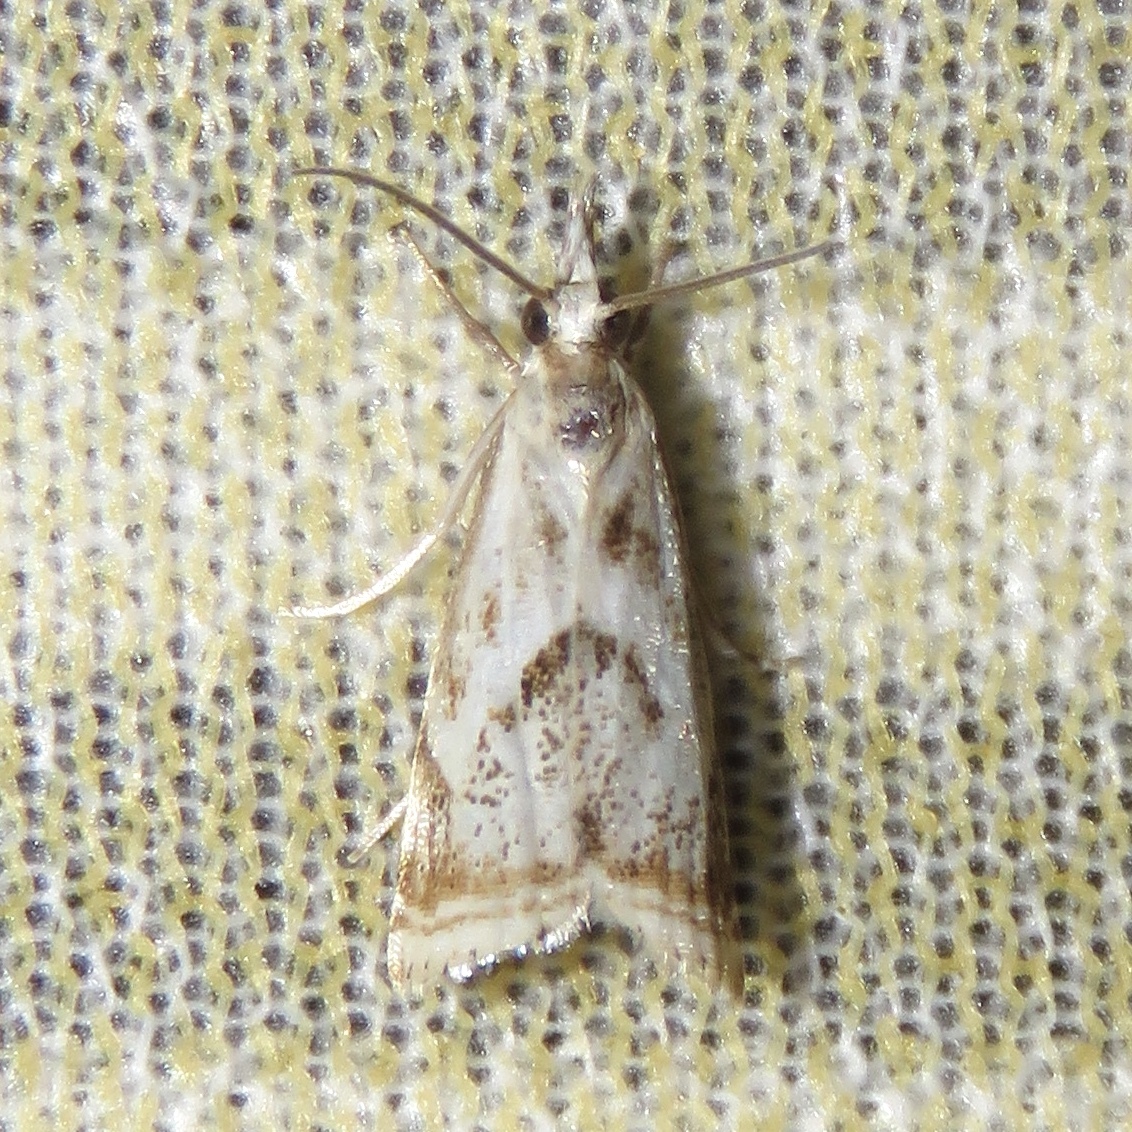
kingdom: Animalia
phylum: Arthropoda
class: Insecta
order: Lepidoptera
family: Crambidae
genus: Microcrambus
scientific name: Microcrambus elegans
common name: Elegant grass-veneer
